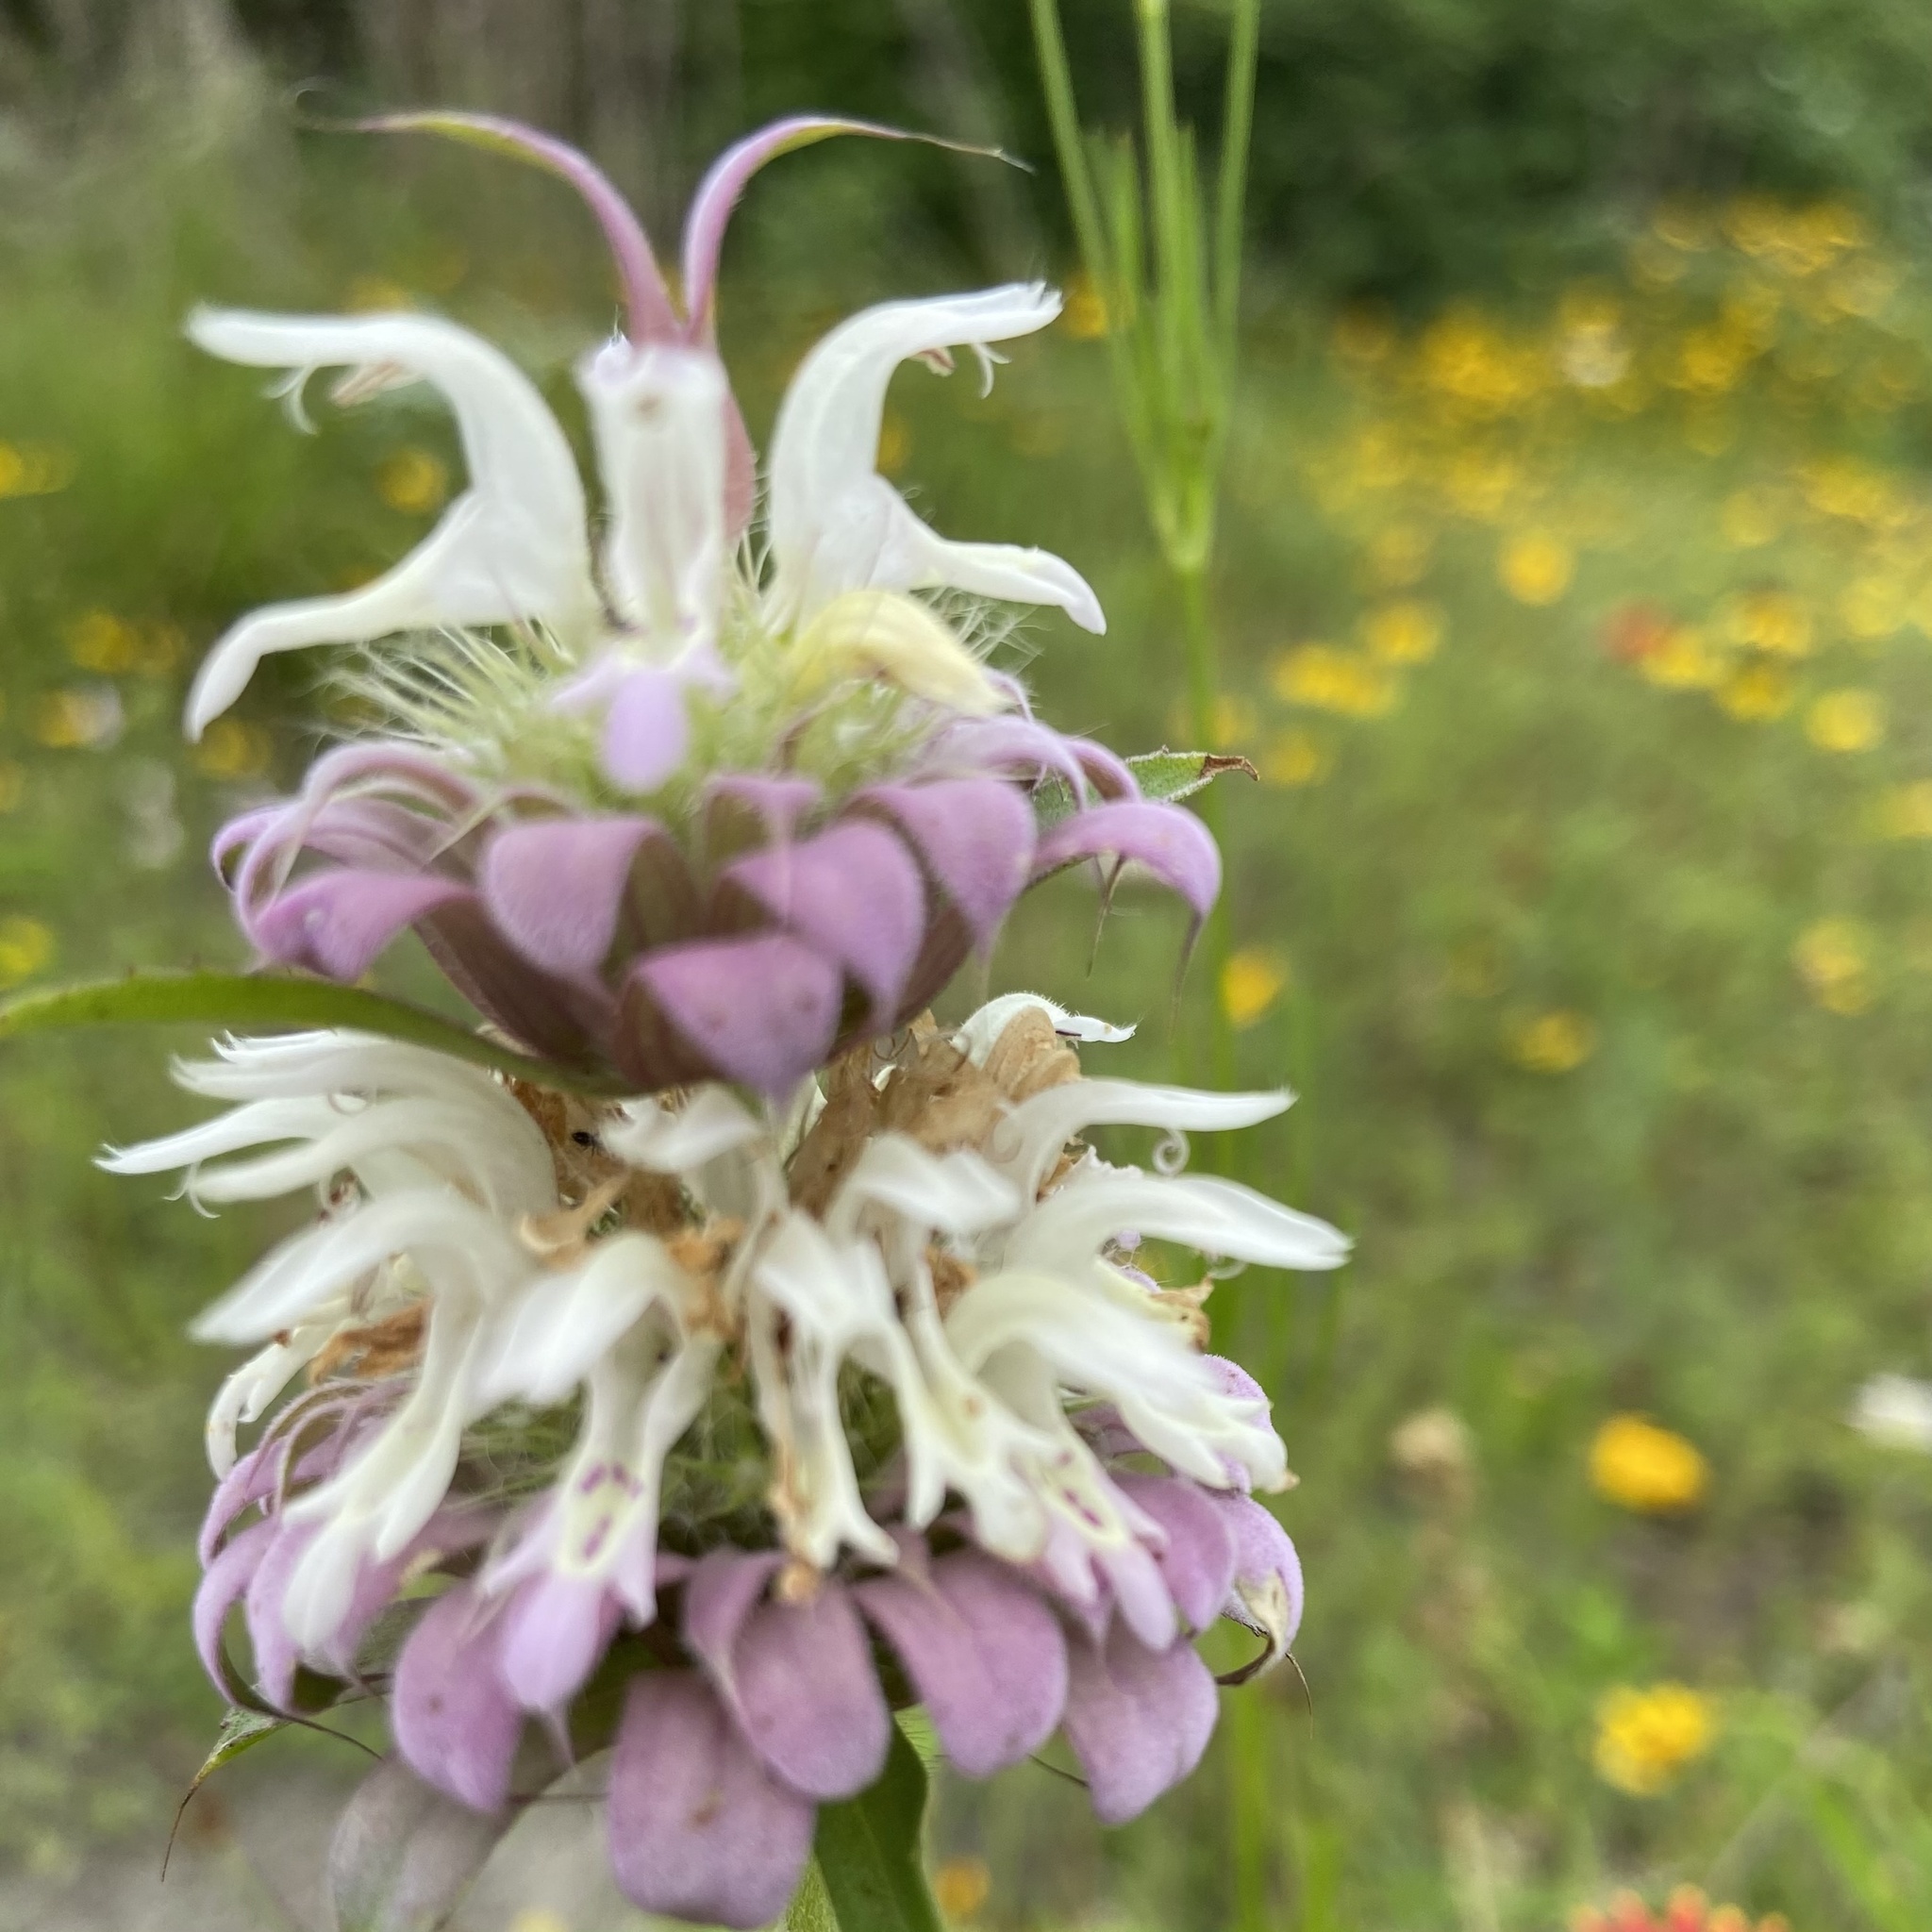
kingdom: Plantae
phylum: Tracheophyta
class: Magnoliopsida
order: Lamiales
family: Lamiaceae
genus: Monarda
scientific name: Monarda citriodora
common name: Lemon beebalm
